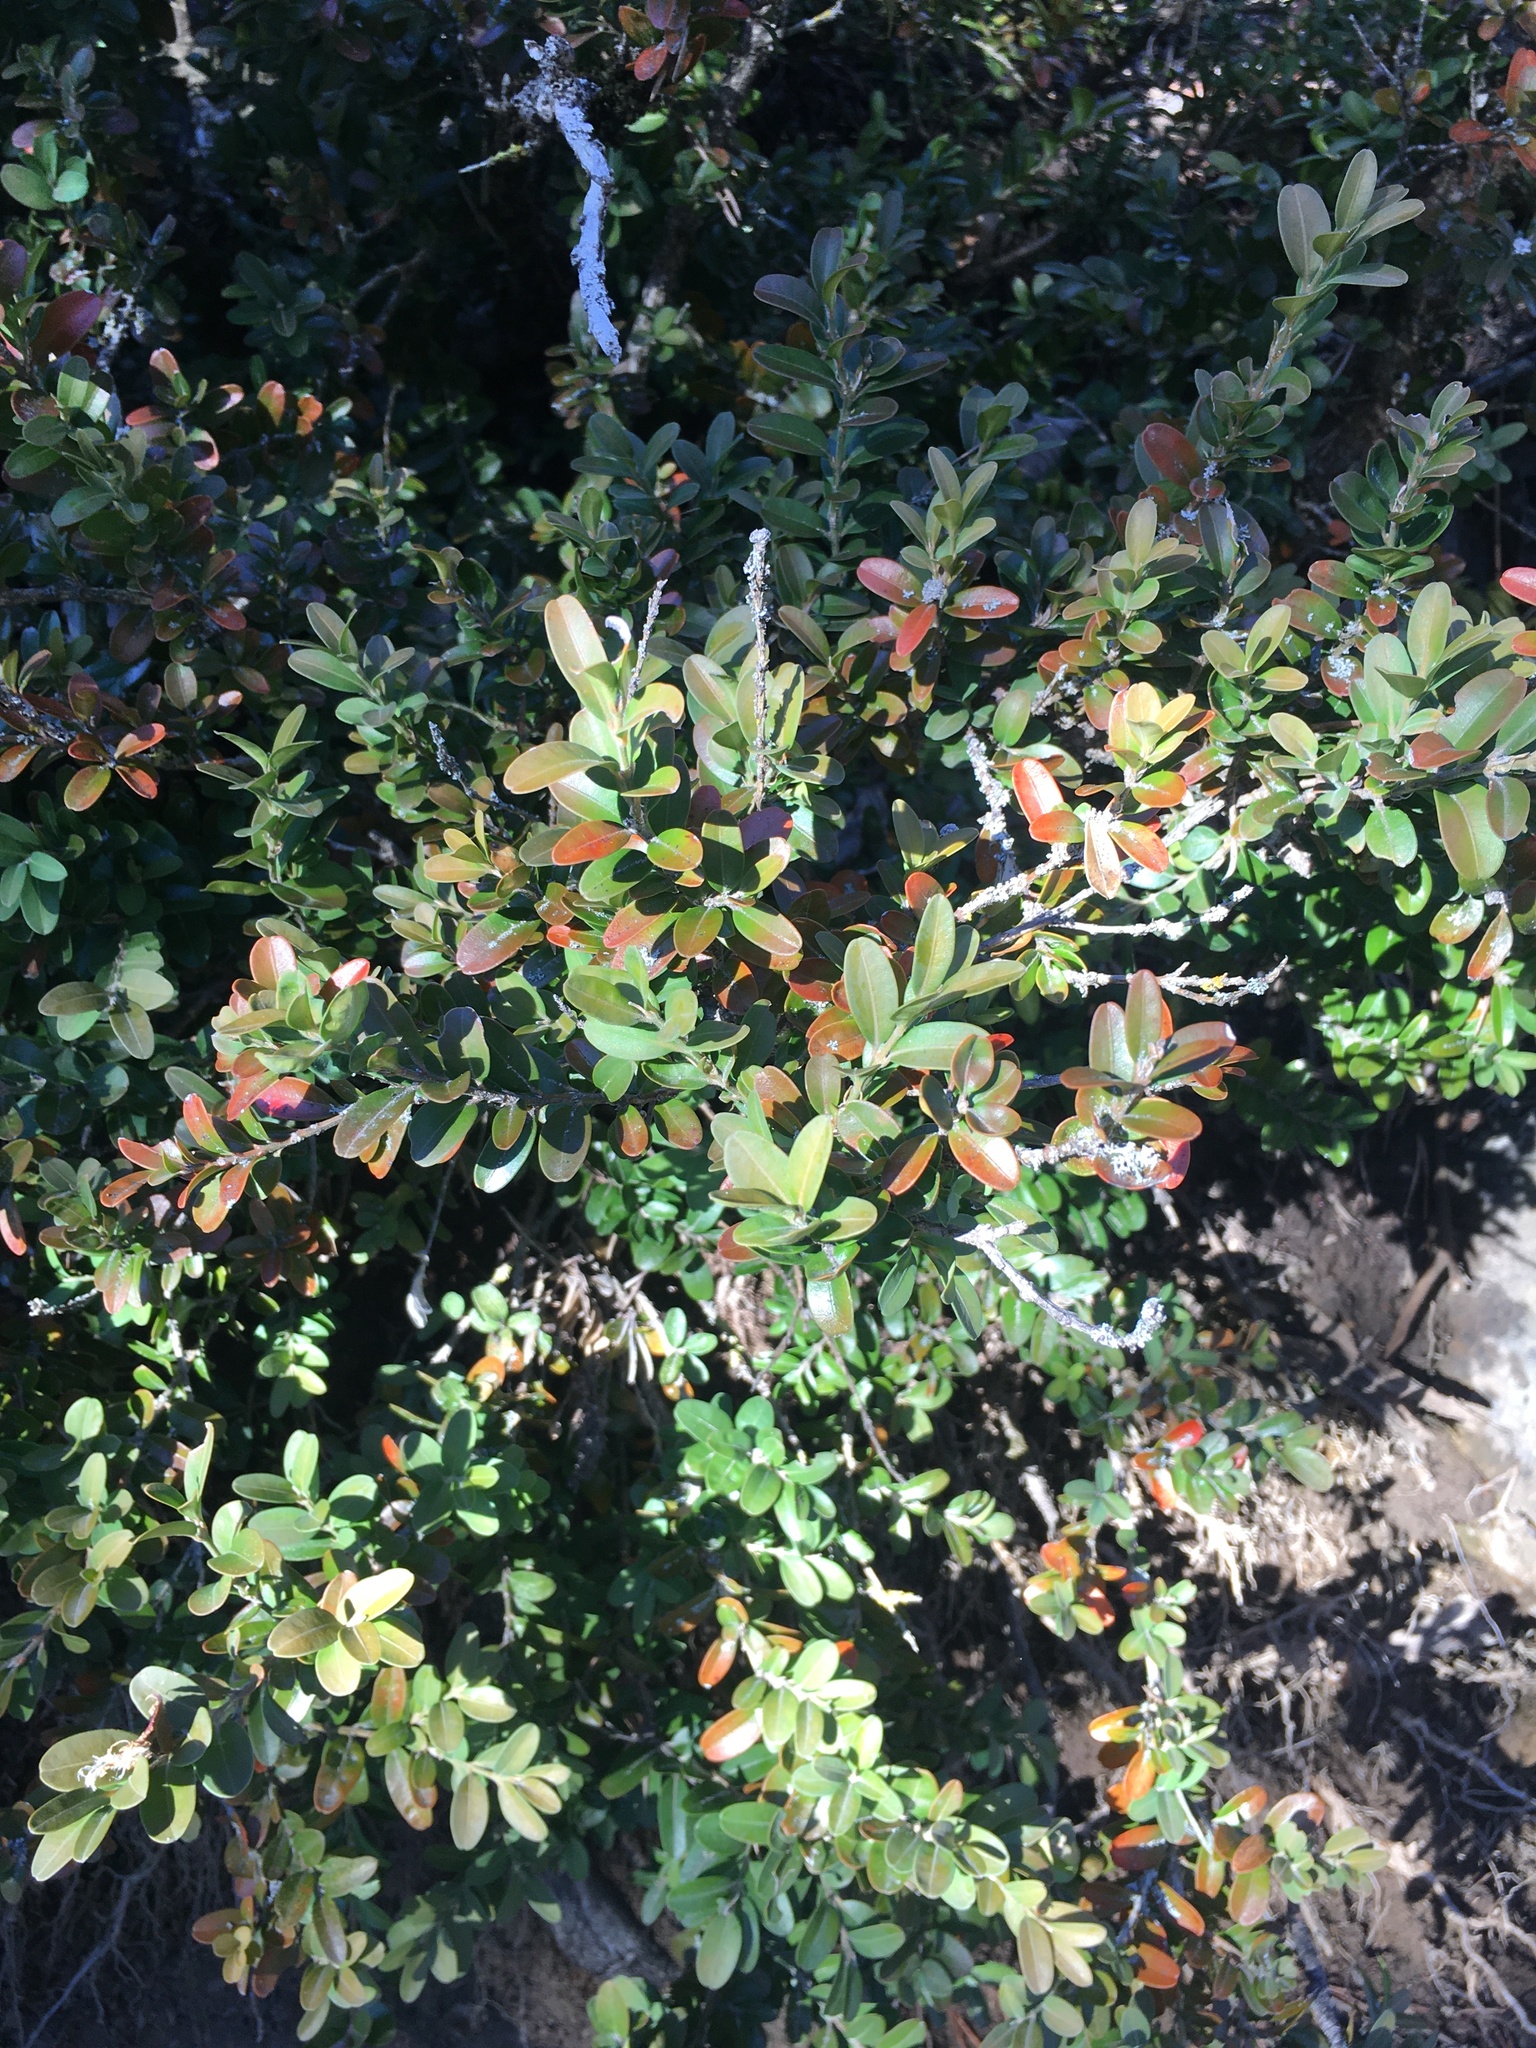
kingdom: Plantae
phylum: Tracheophyta
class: Magnoliopsida
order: Buxales
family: Buxaceae
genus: Buxus
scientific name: Buxus sempervirens
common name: Box
